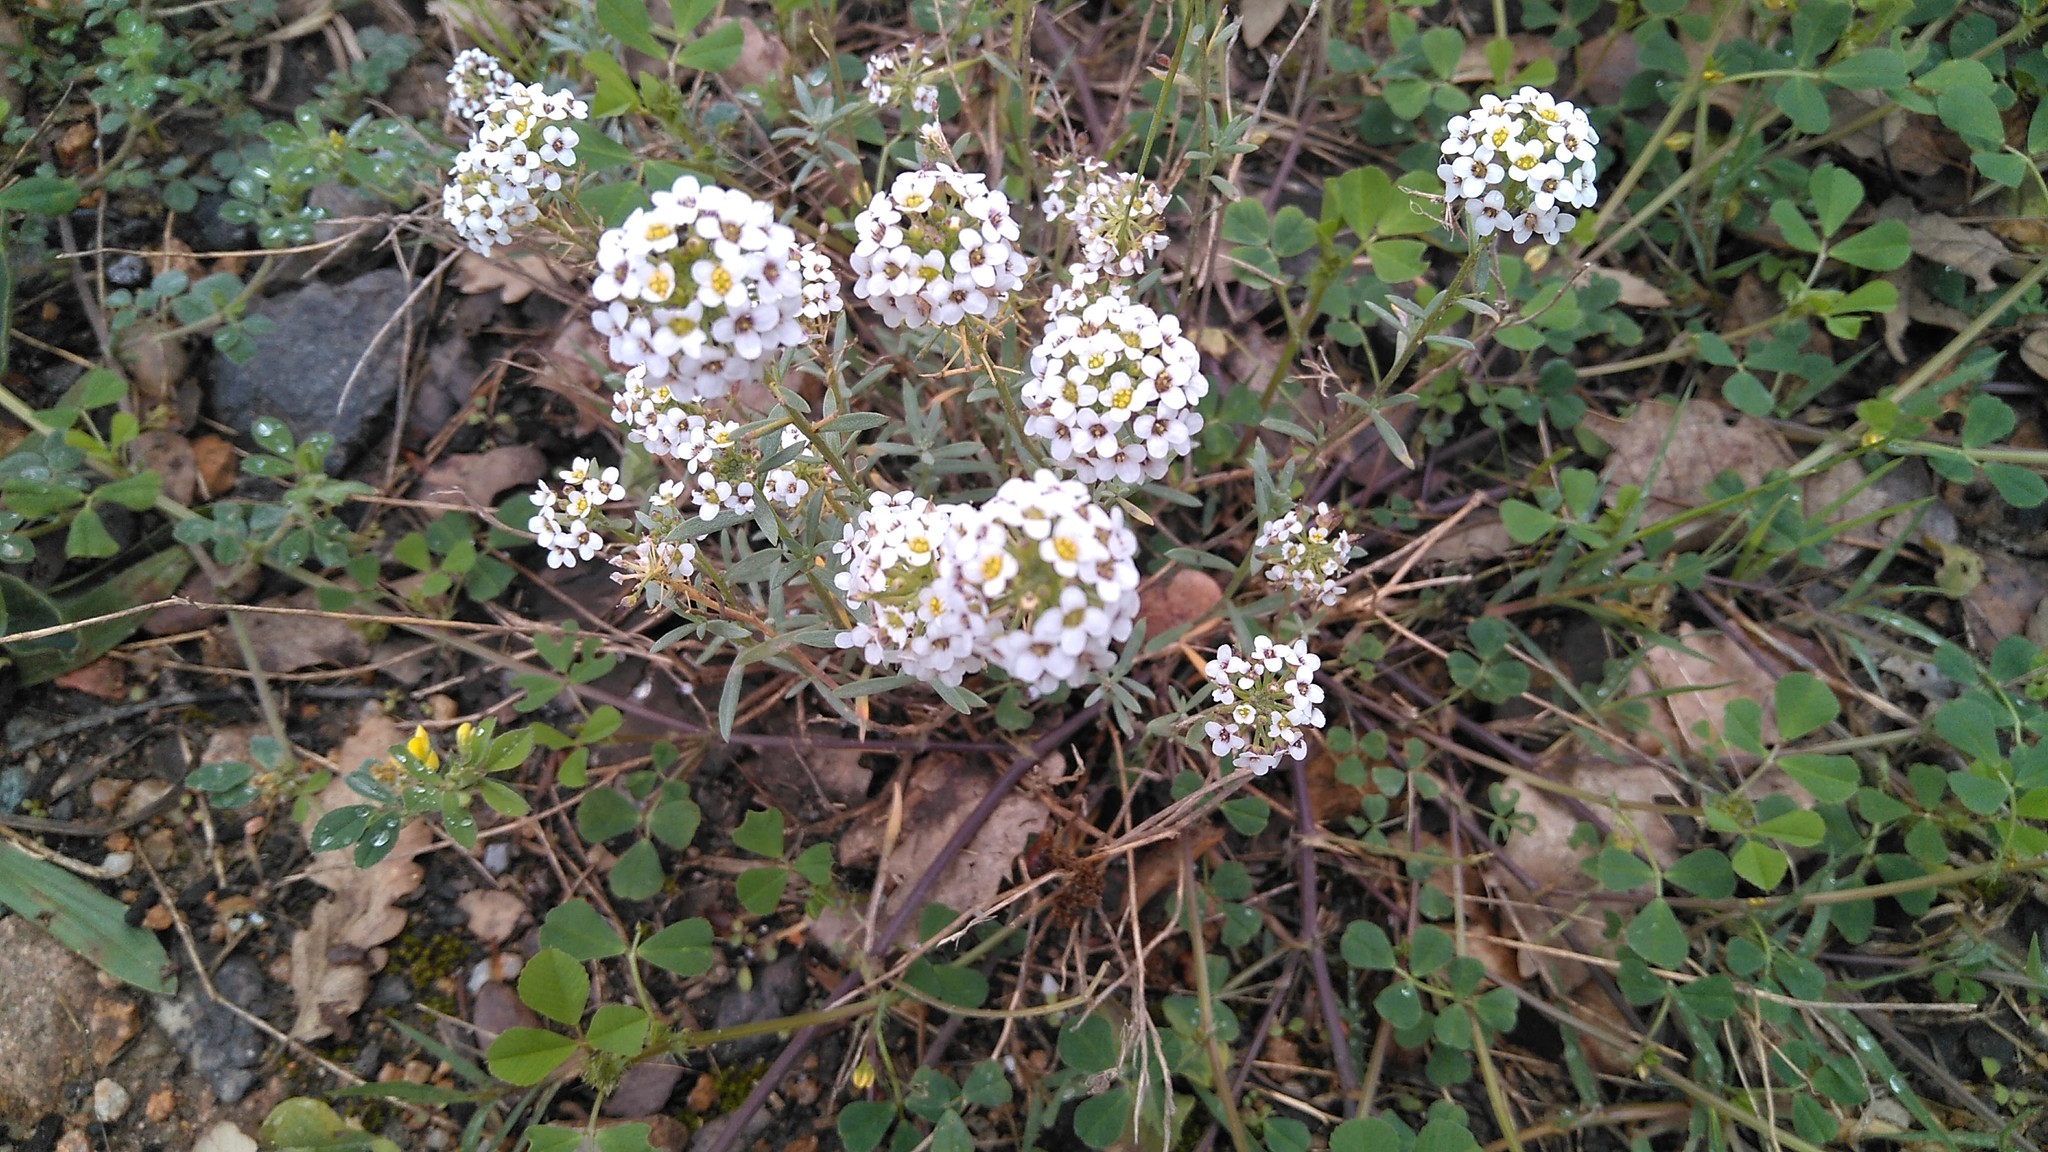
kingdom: Plantae
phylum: Tracheophyta
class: Magnoliopsida
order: Brassicales
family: Brassicaceae
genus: Lobularia
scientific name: Lobularia maritima
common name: Sweet alison
